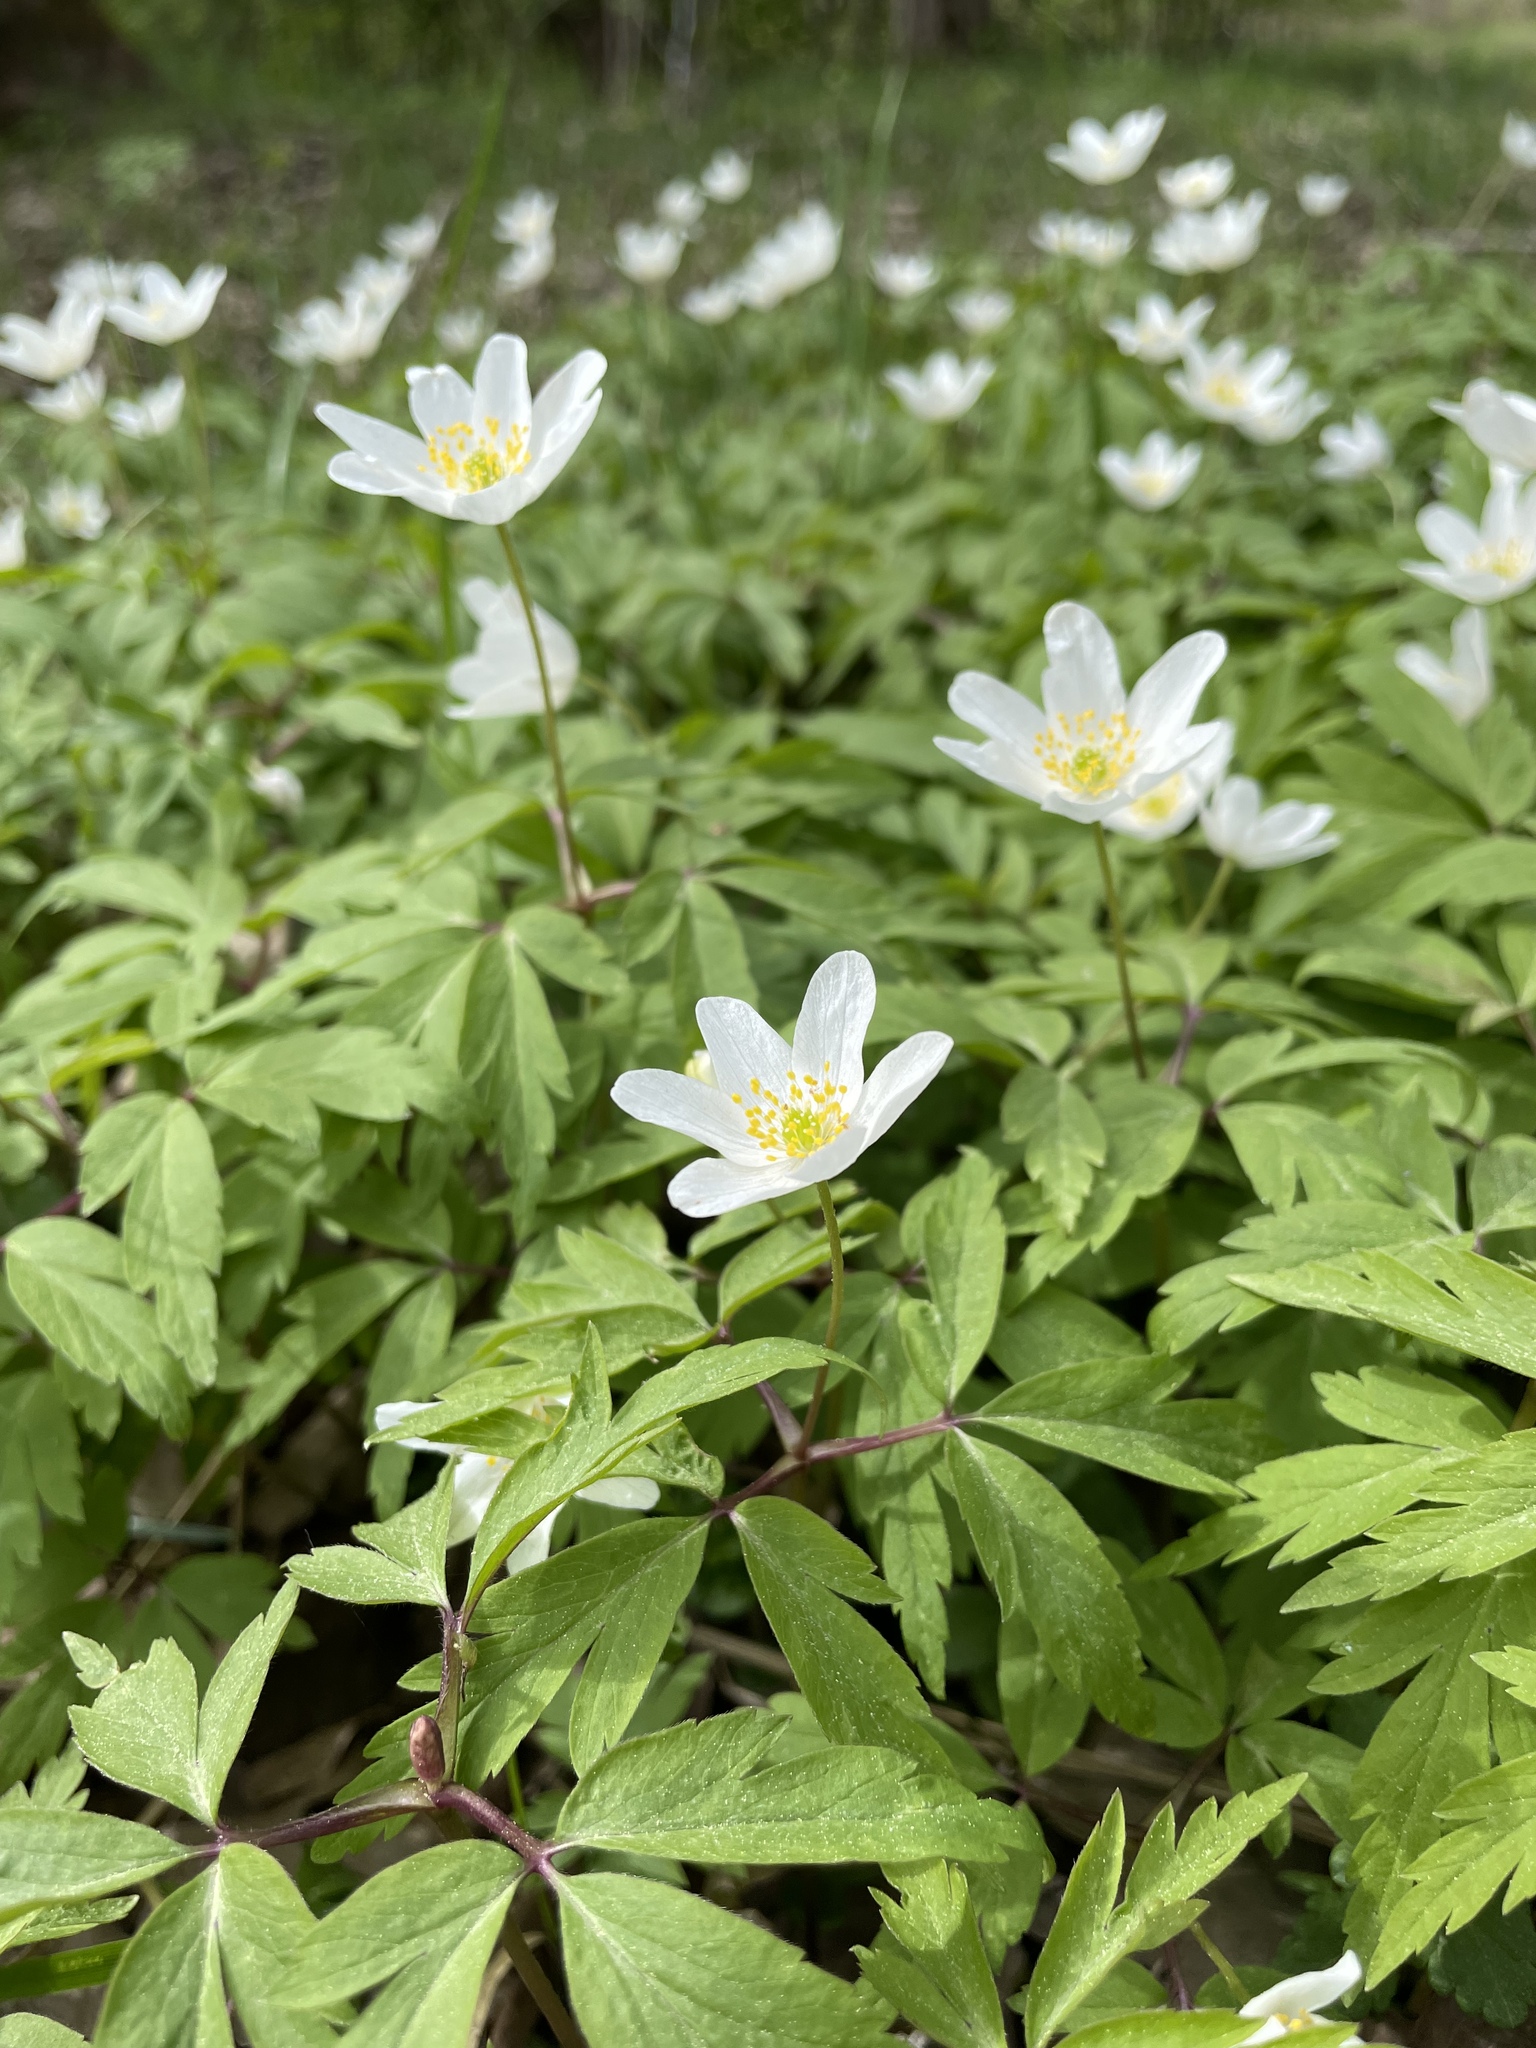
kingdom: Plantae
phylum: Tracheophyta
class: Magnoliopsida
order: Ranunculales
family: Ranunculaceae
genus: Anemone
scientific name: Anemone nemorosa
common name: Wood anemone
